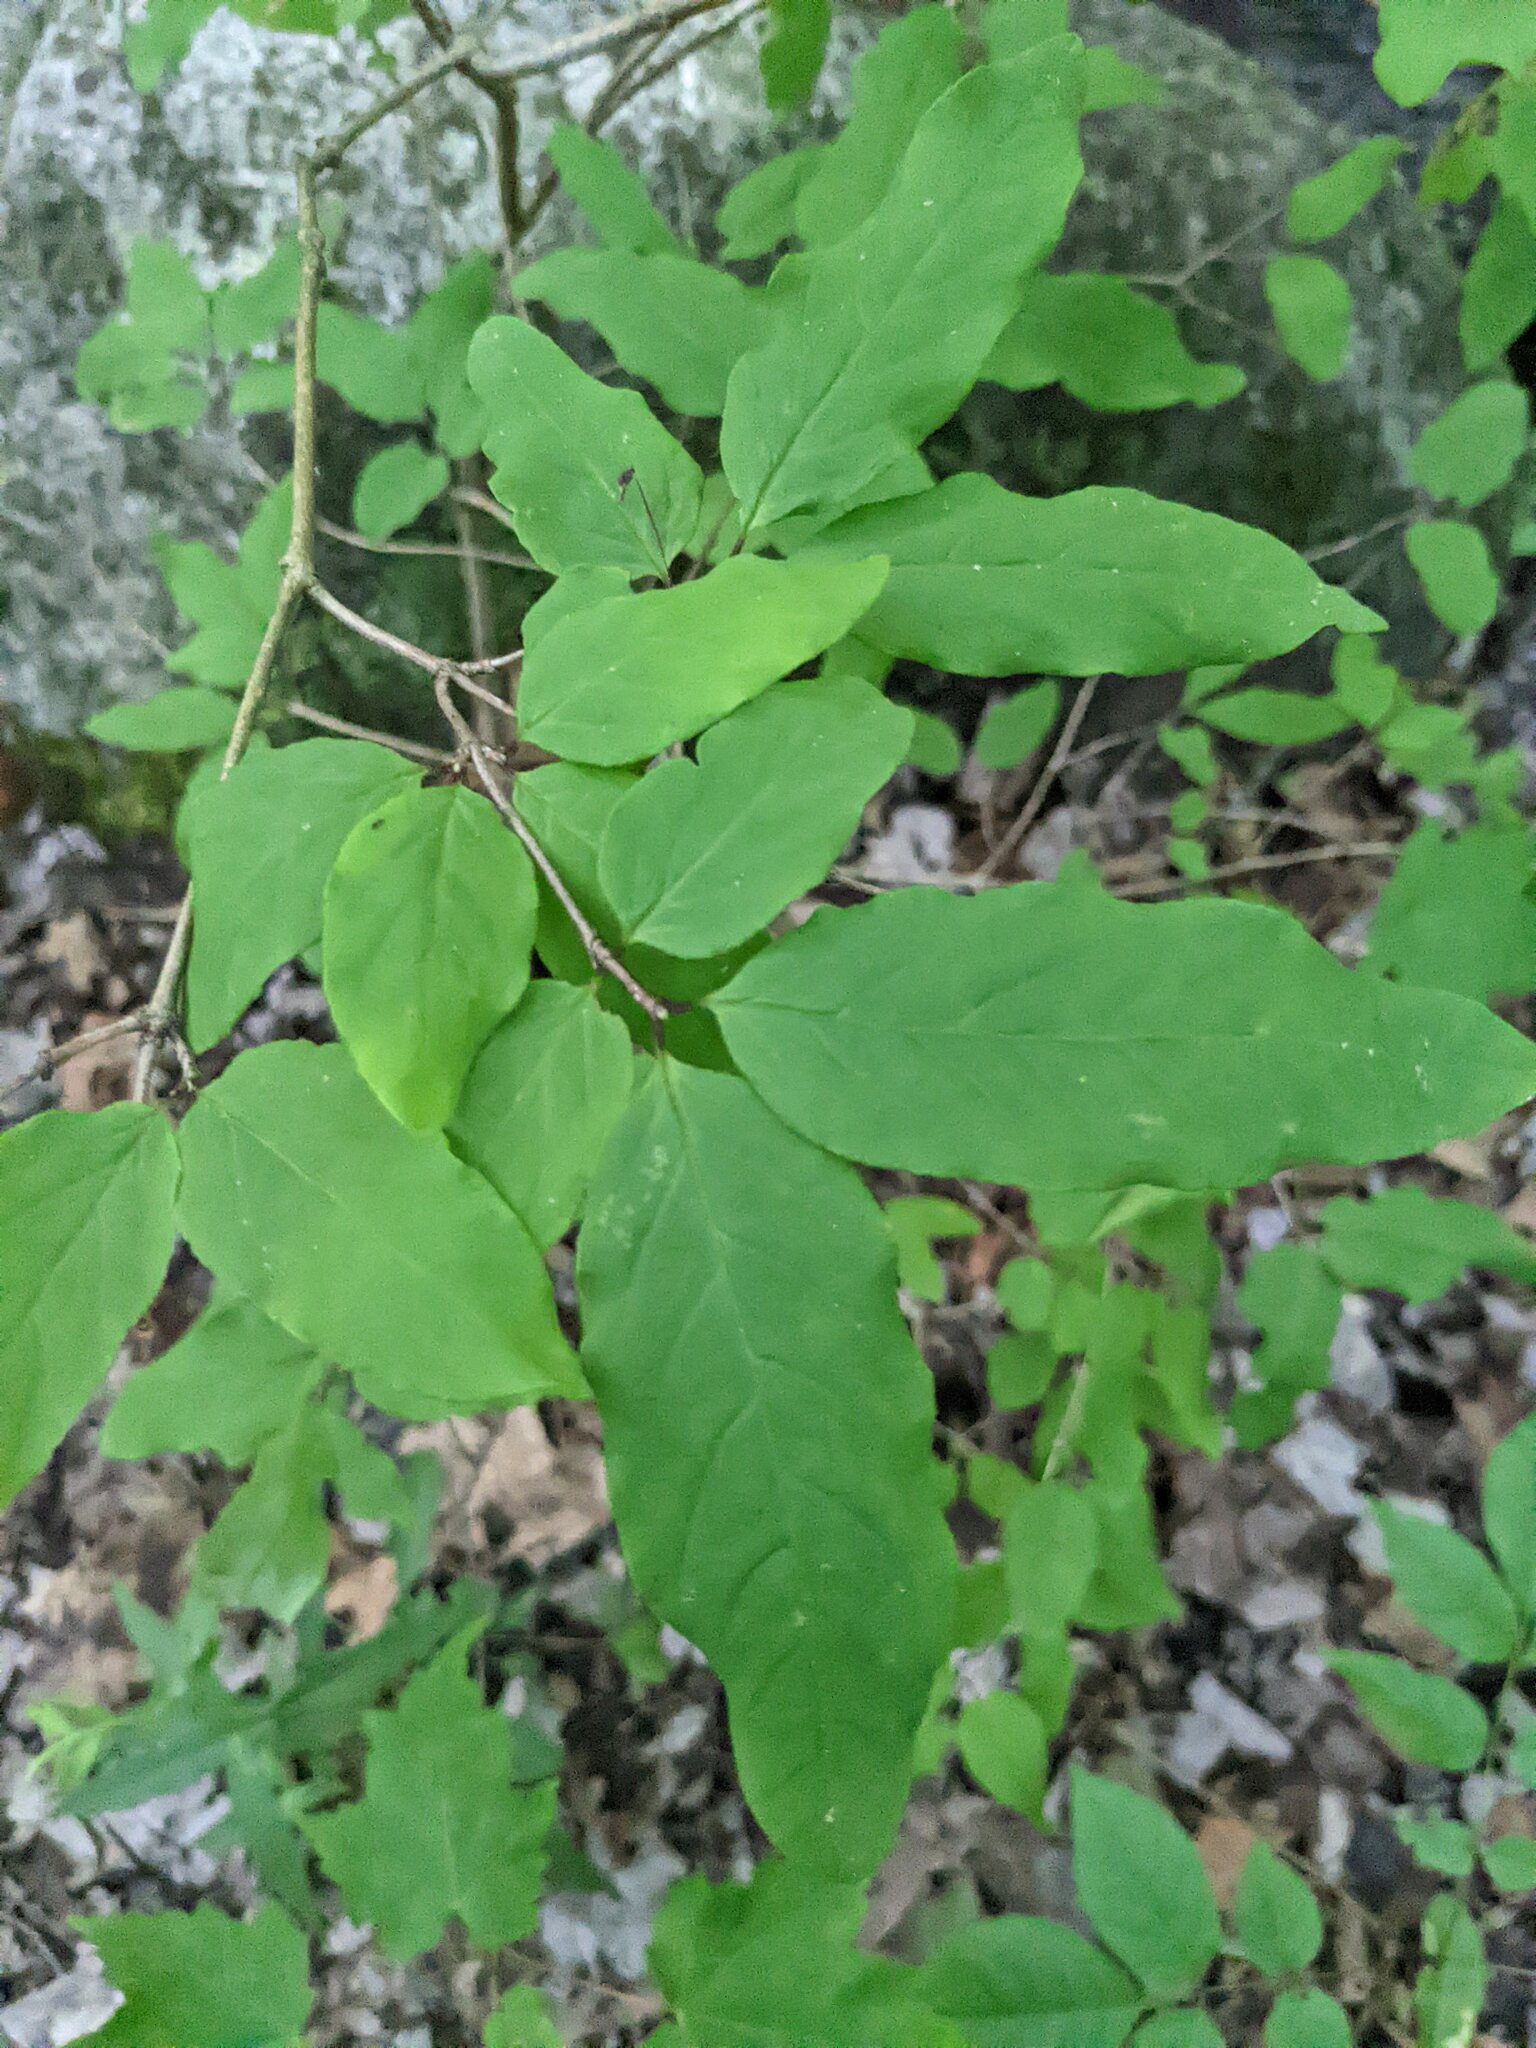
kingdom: Plantae
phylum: Tracheophyta
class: Magnoliopsida
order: Dipsacales
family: Caprifoliaceae
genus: Lonicera
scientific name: Lonicera canadensis
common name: American fly-honeysuckle
